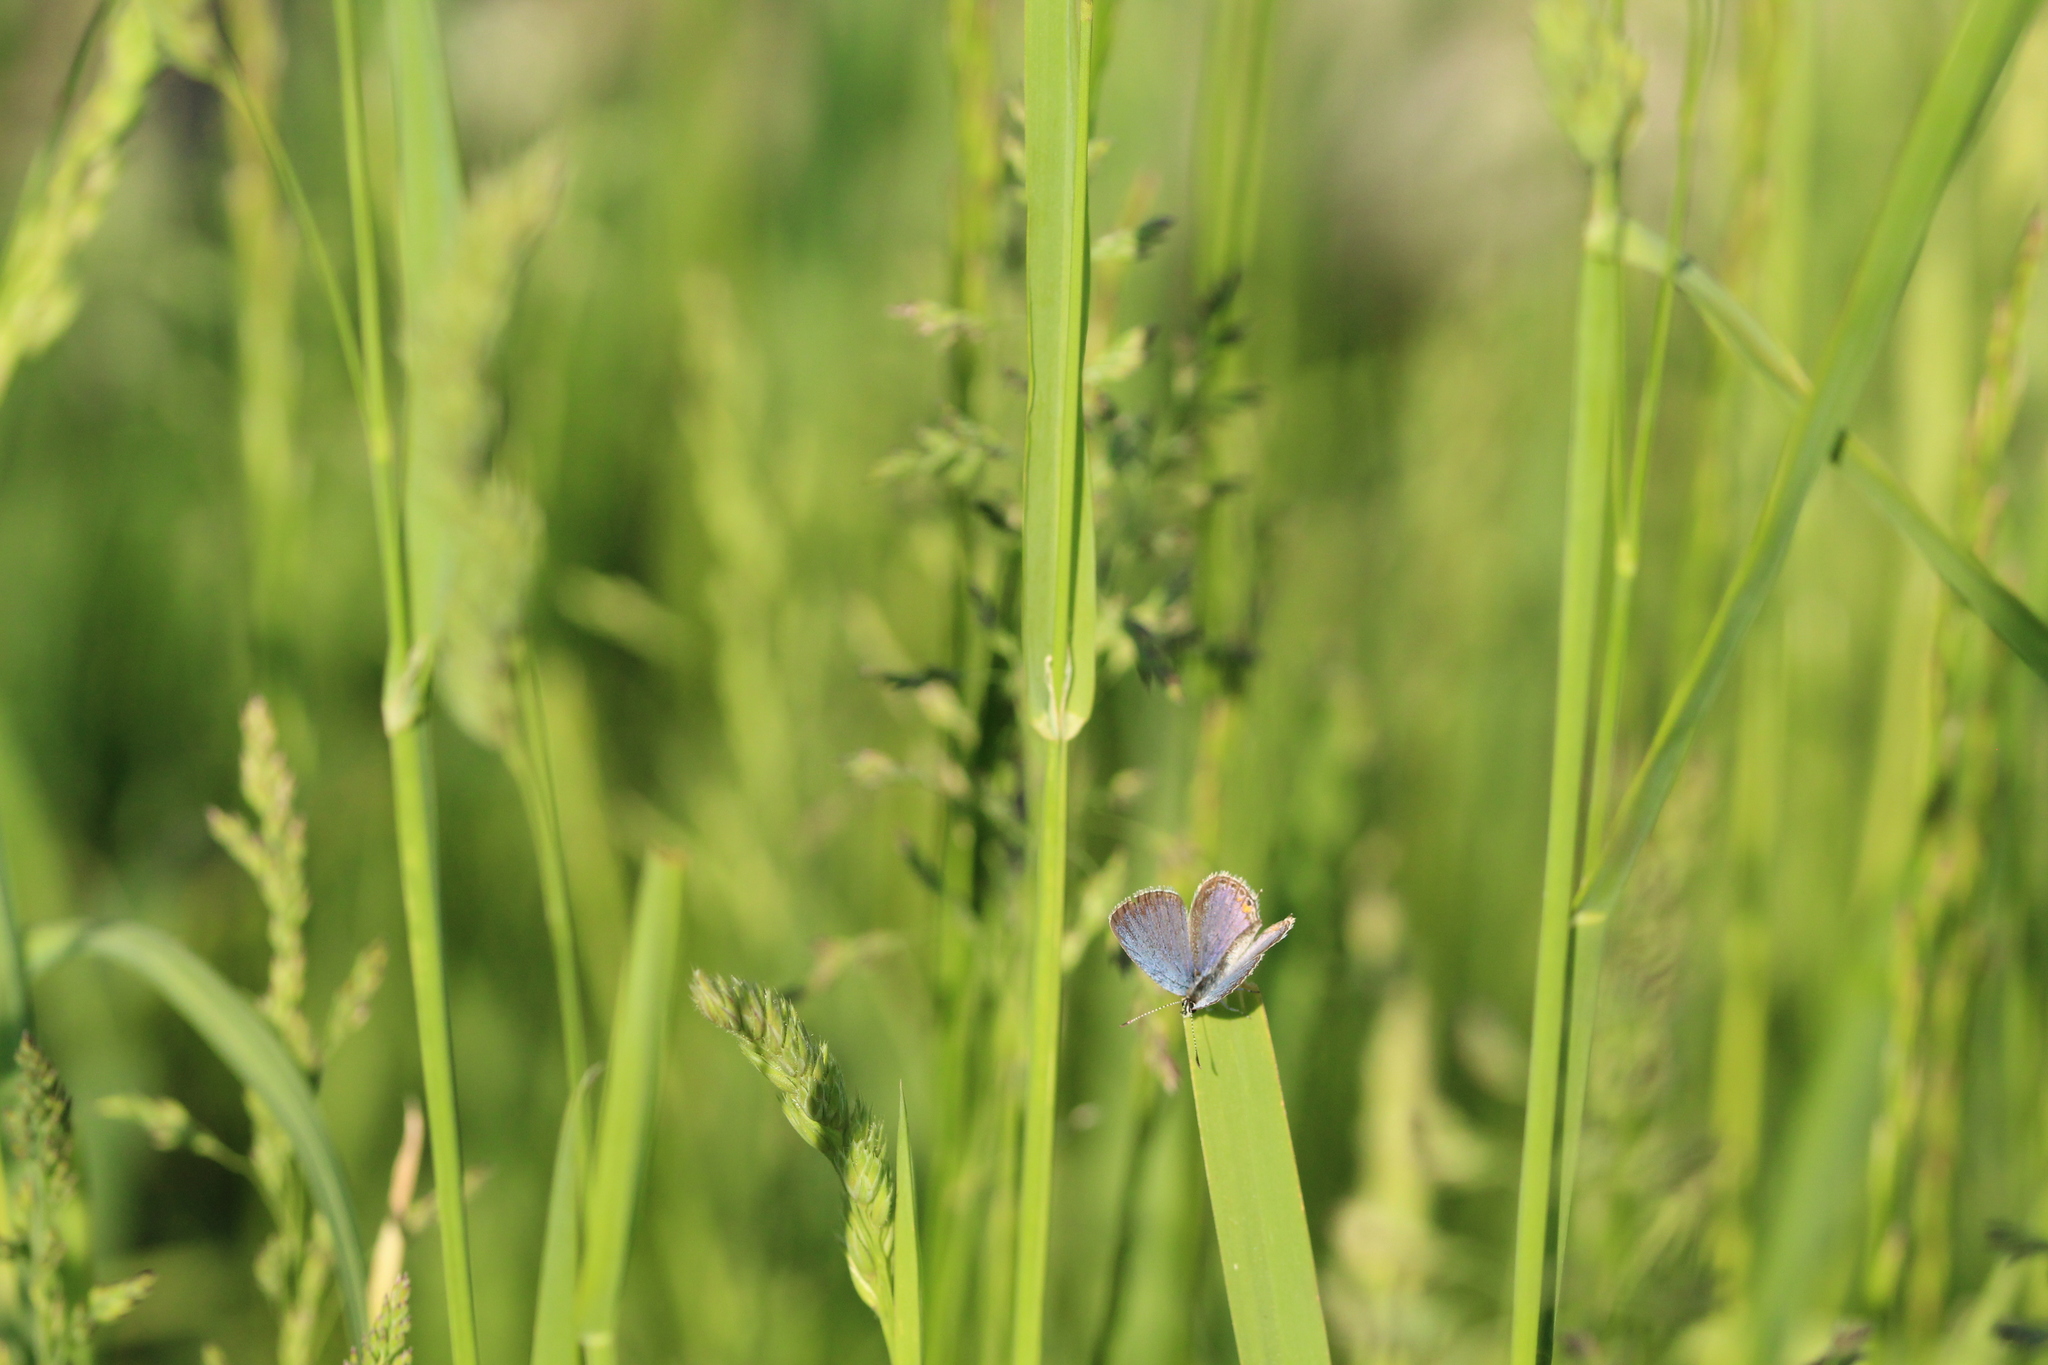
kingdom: Animalia
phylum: Arthropoda
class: Insecta
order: Lepidoptera
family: Lycaenidae
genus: Elkalyce
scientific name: Elkalyce comyntas
